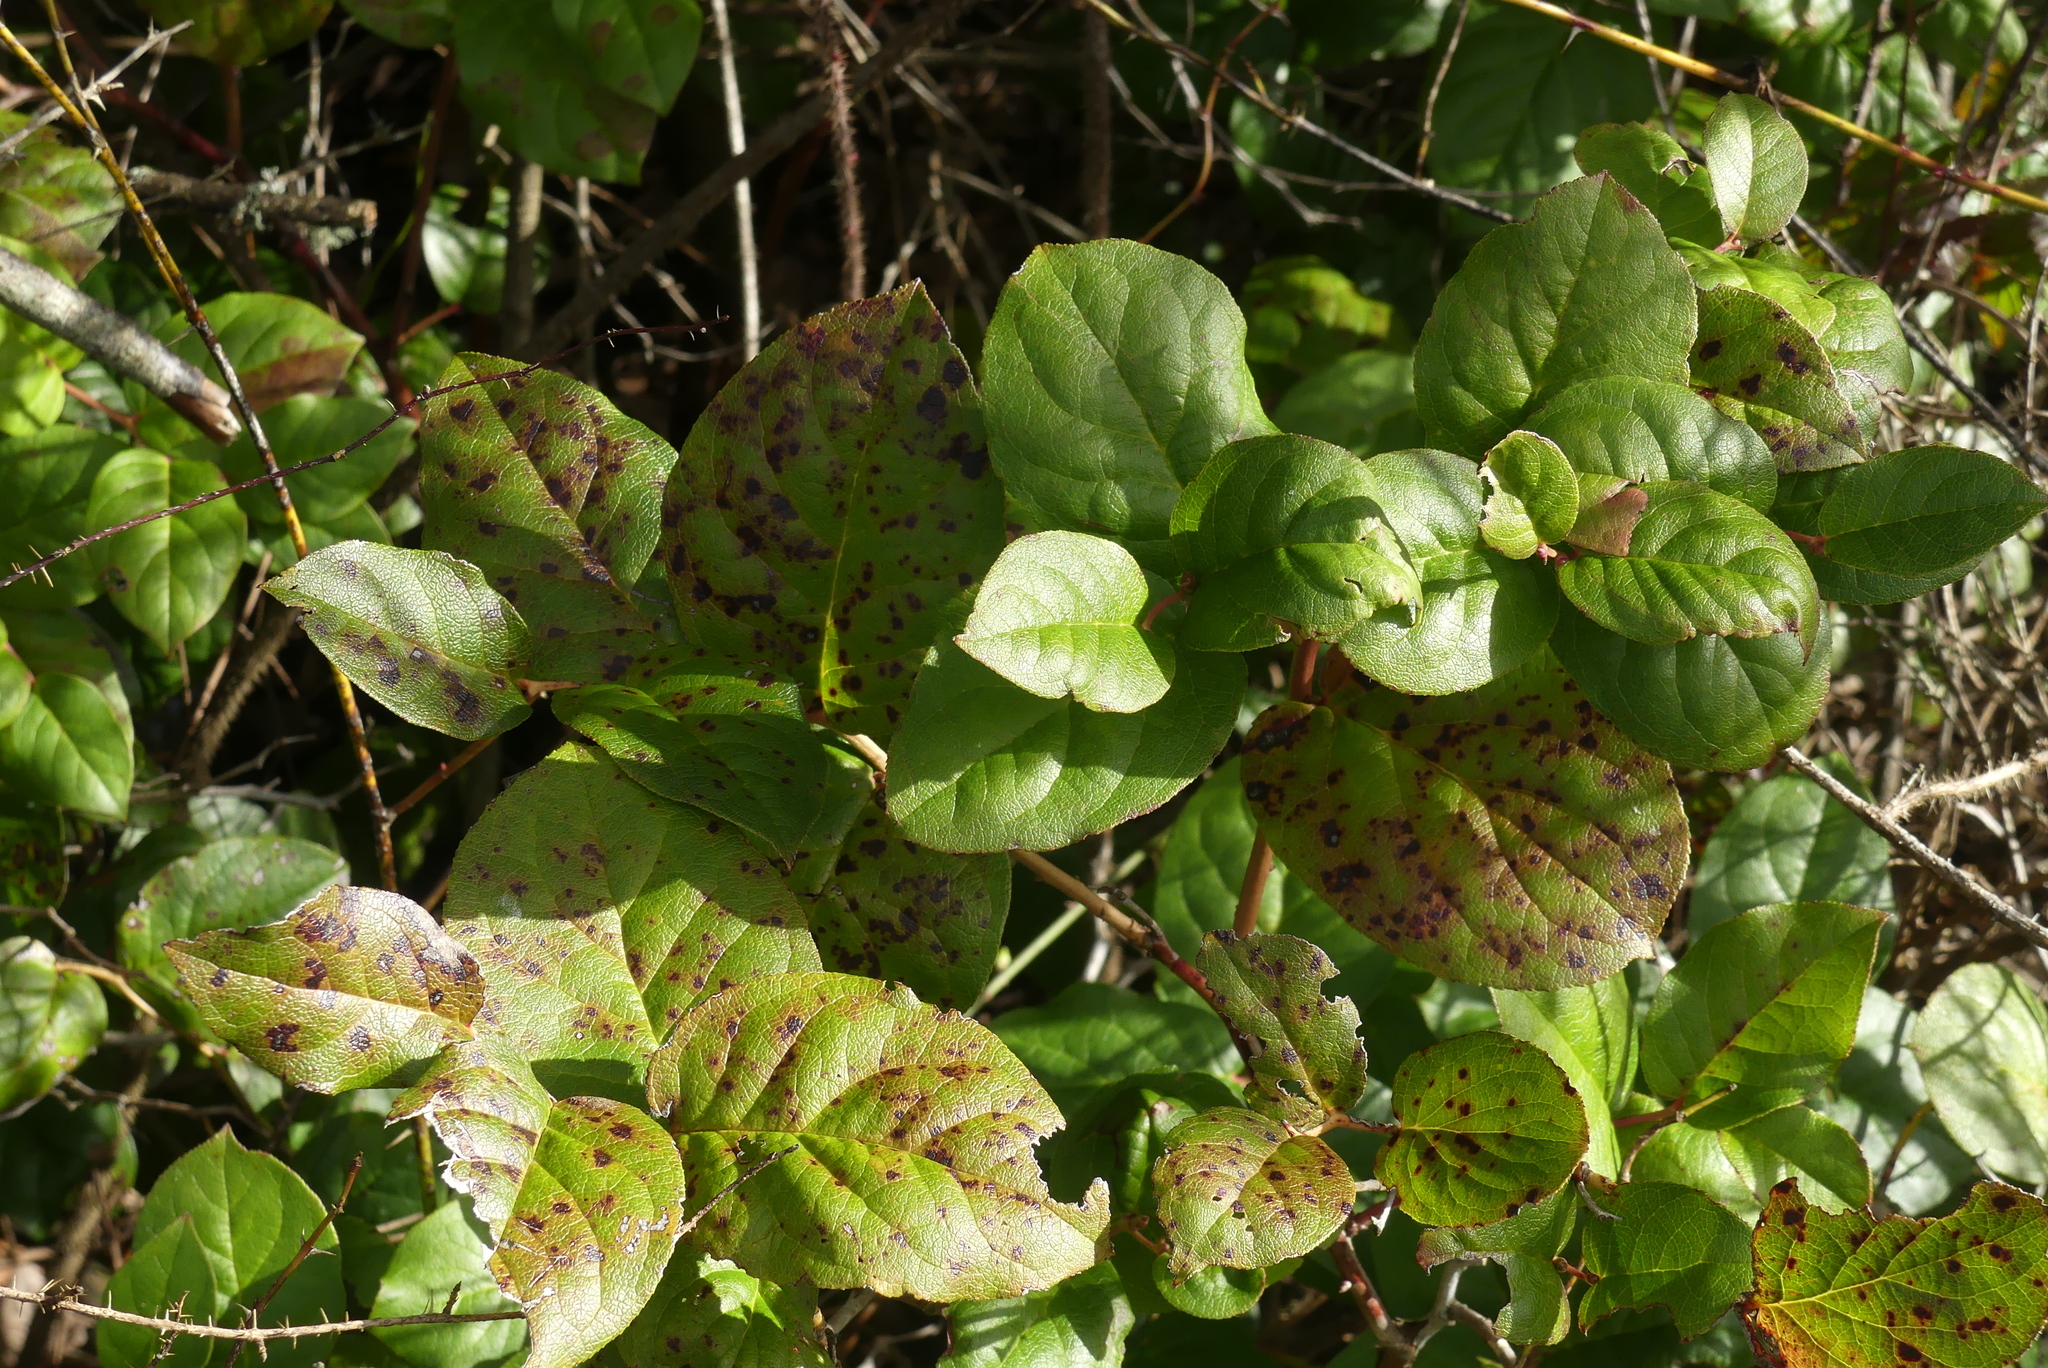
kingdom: Plantae
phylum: Tracheophyta
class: Magnoliopsida
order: Ericales
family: Ericaceae
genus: Gaultheria
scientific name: Gaultheria shallon
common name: Shallon
